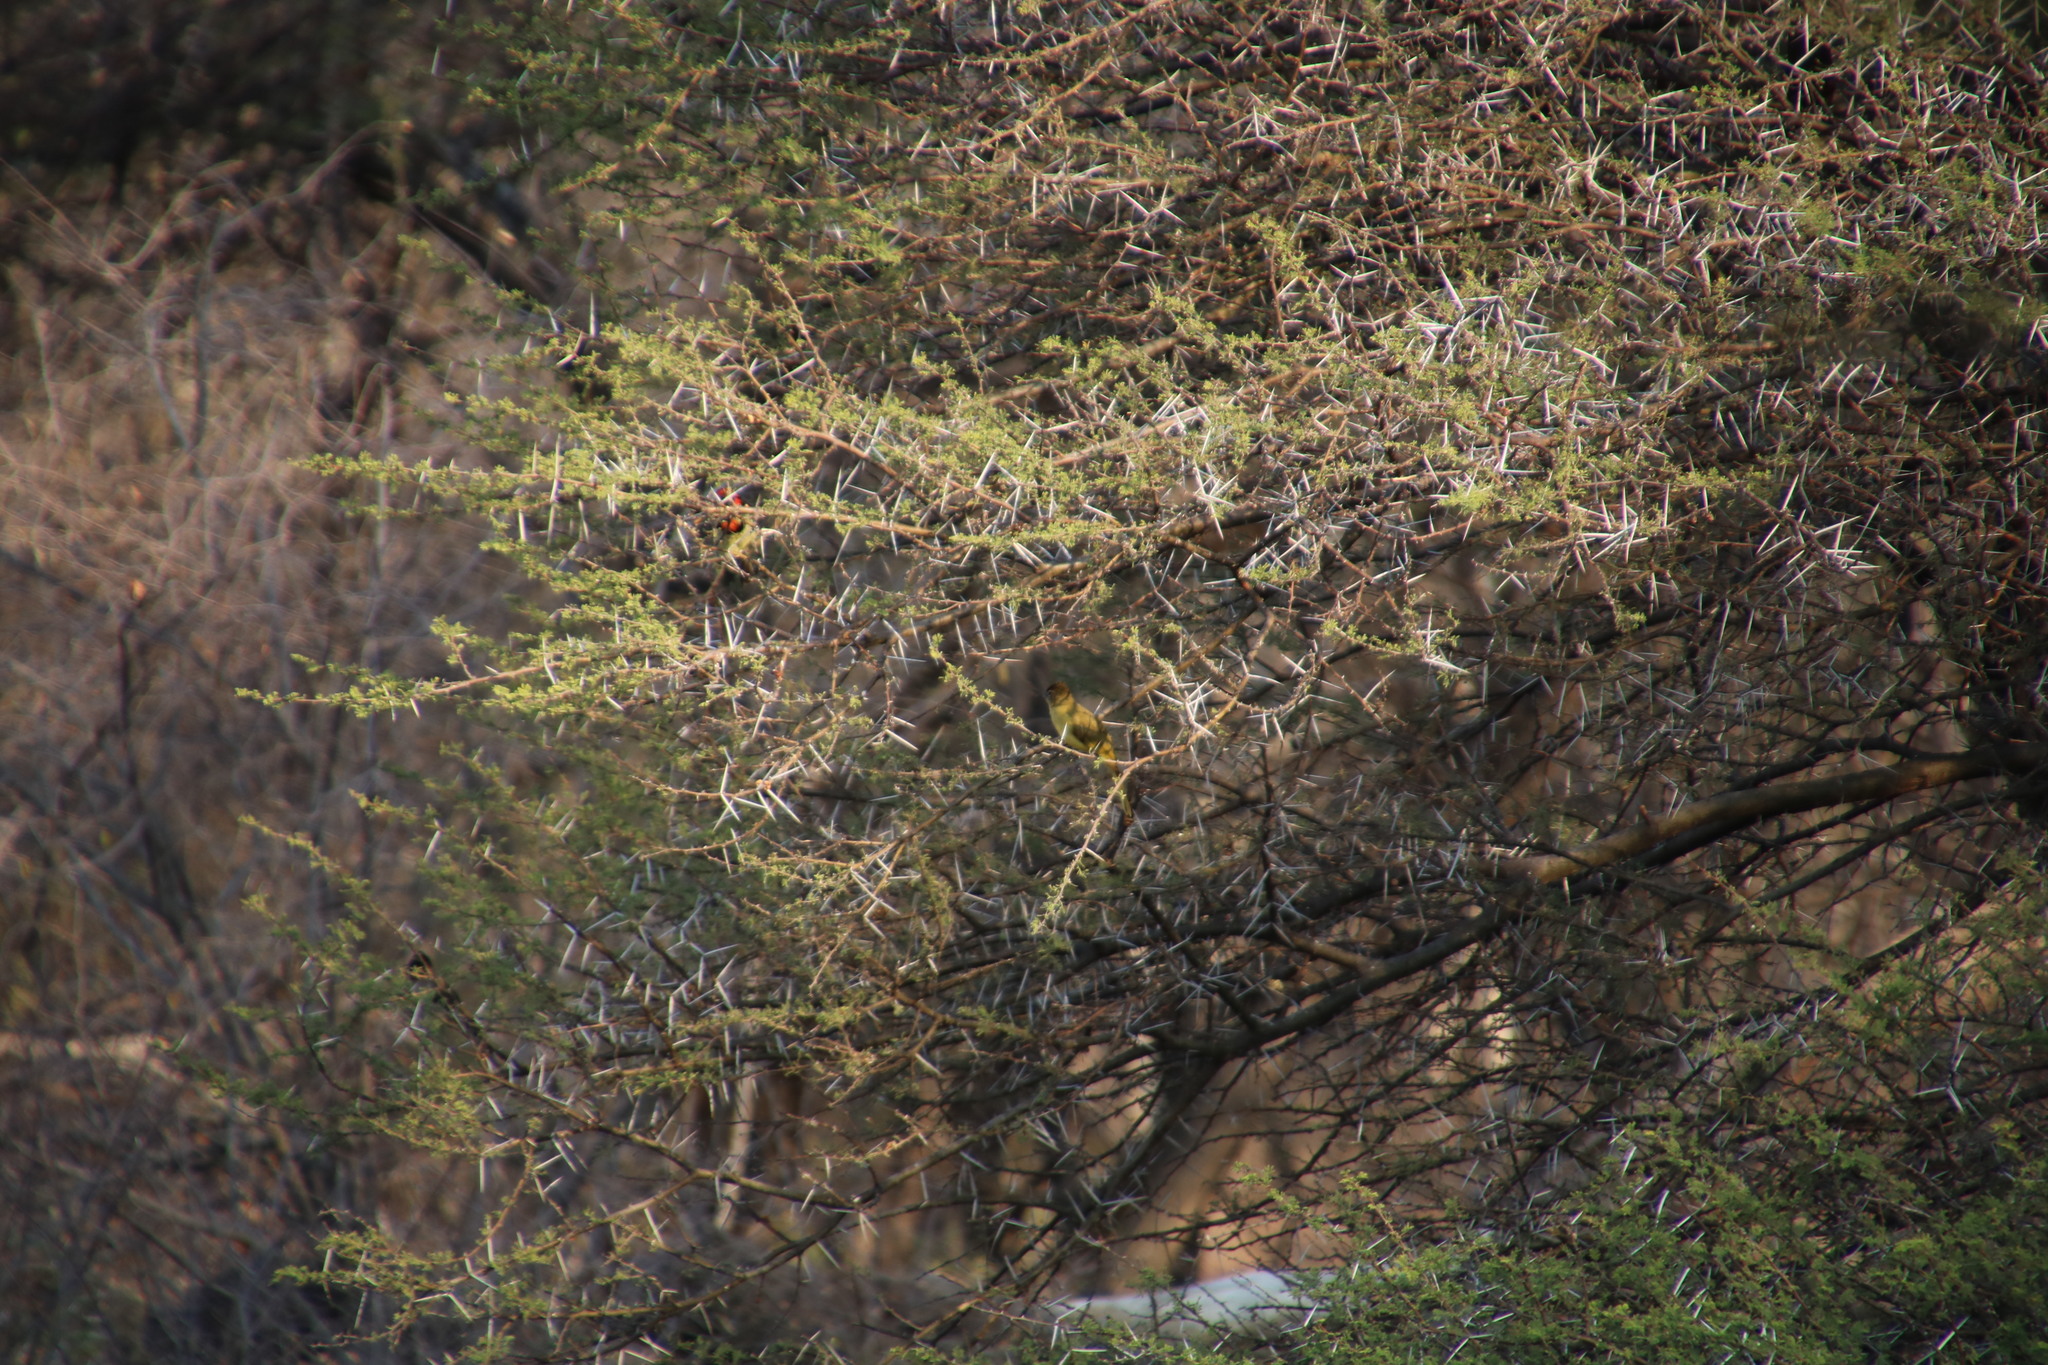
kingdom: Animalia
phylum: Chordata
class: Aves
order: Passeriformes
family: Pycnonotidae
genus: Chlorocichla
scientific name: Chlorocichla flaviventris
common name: Yellow-bellied greenbul
